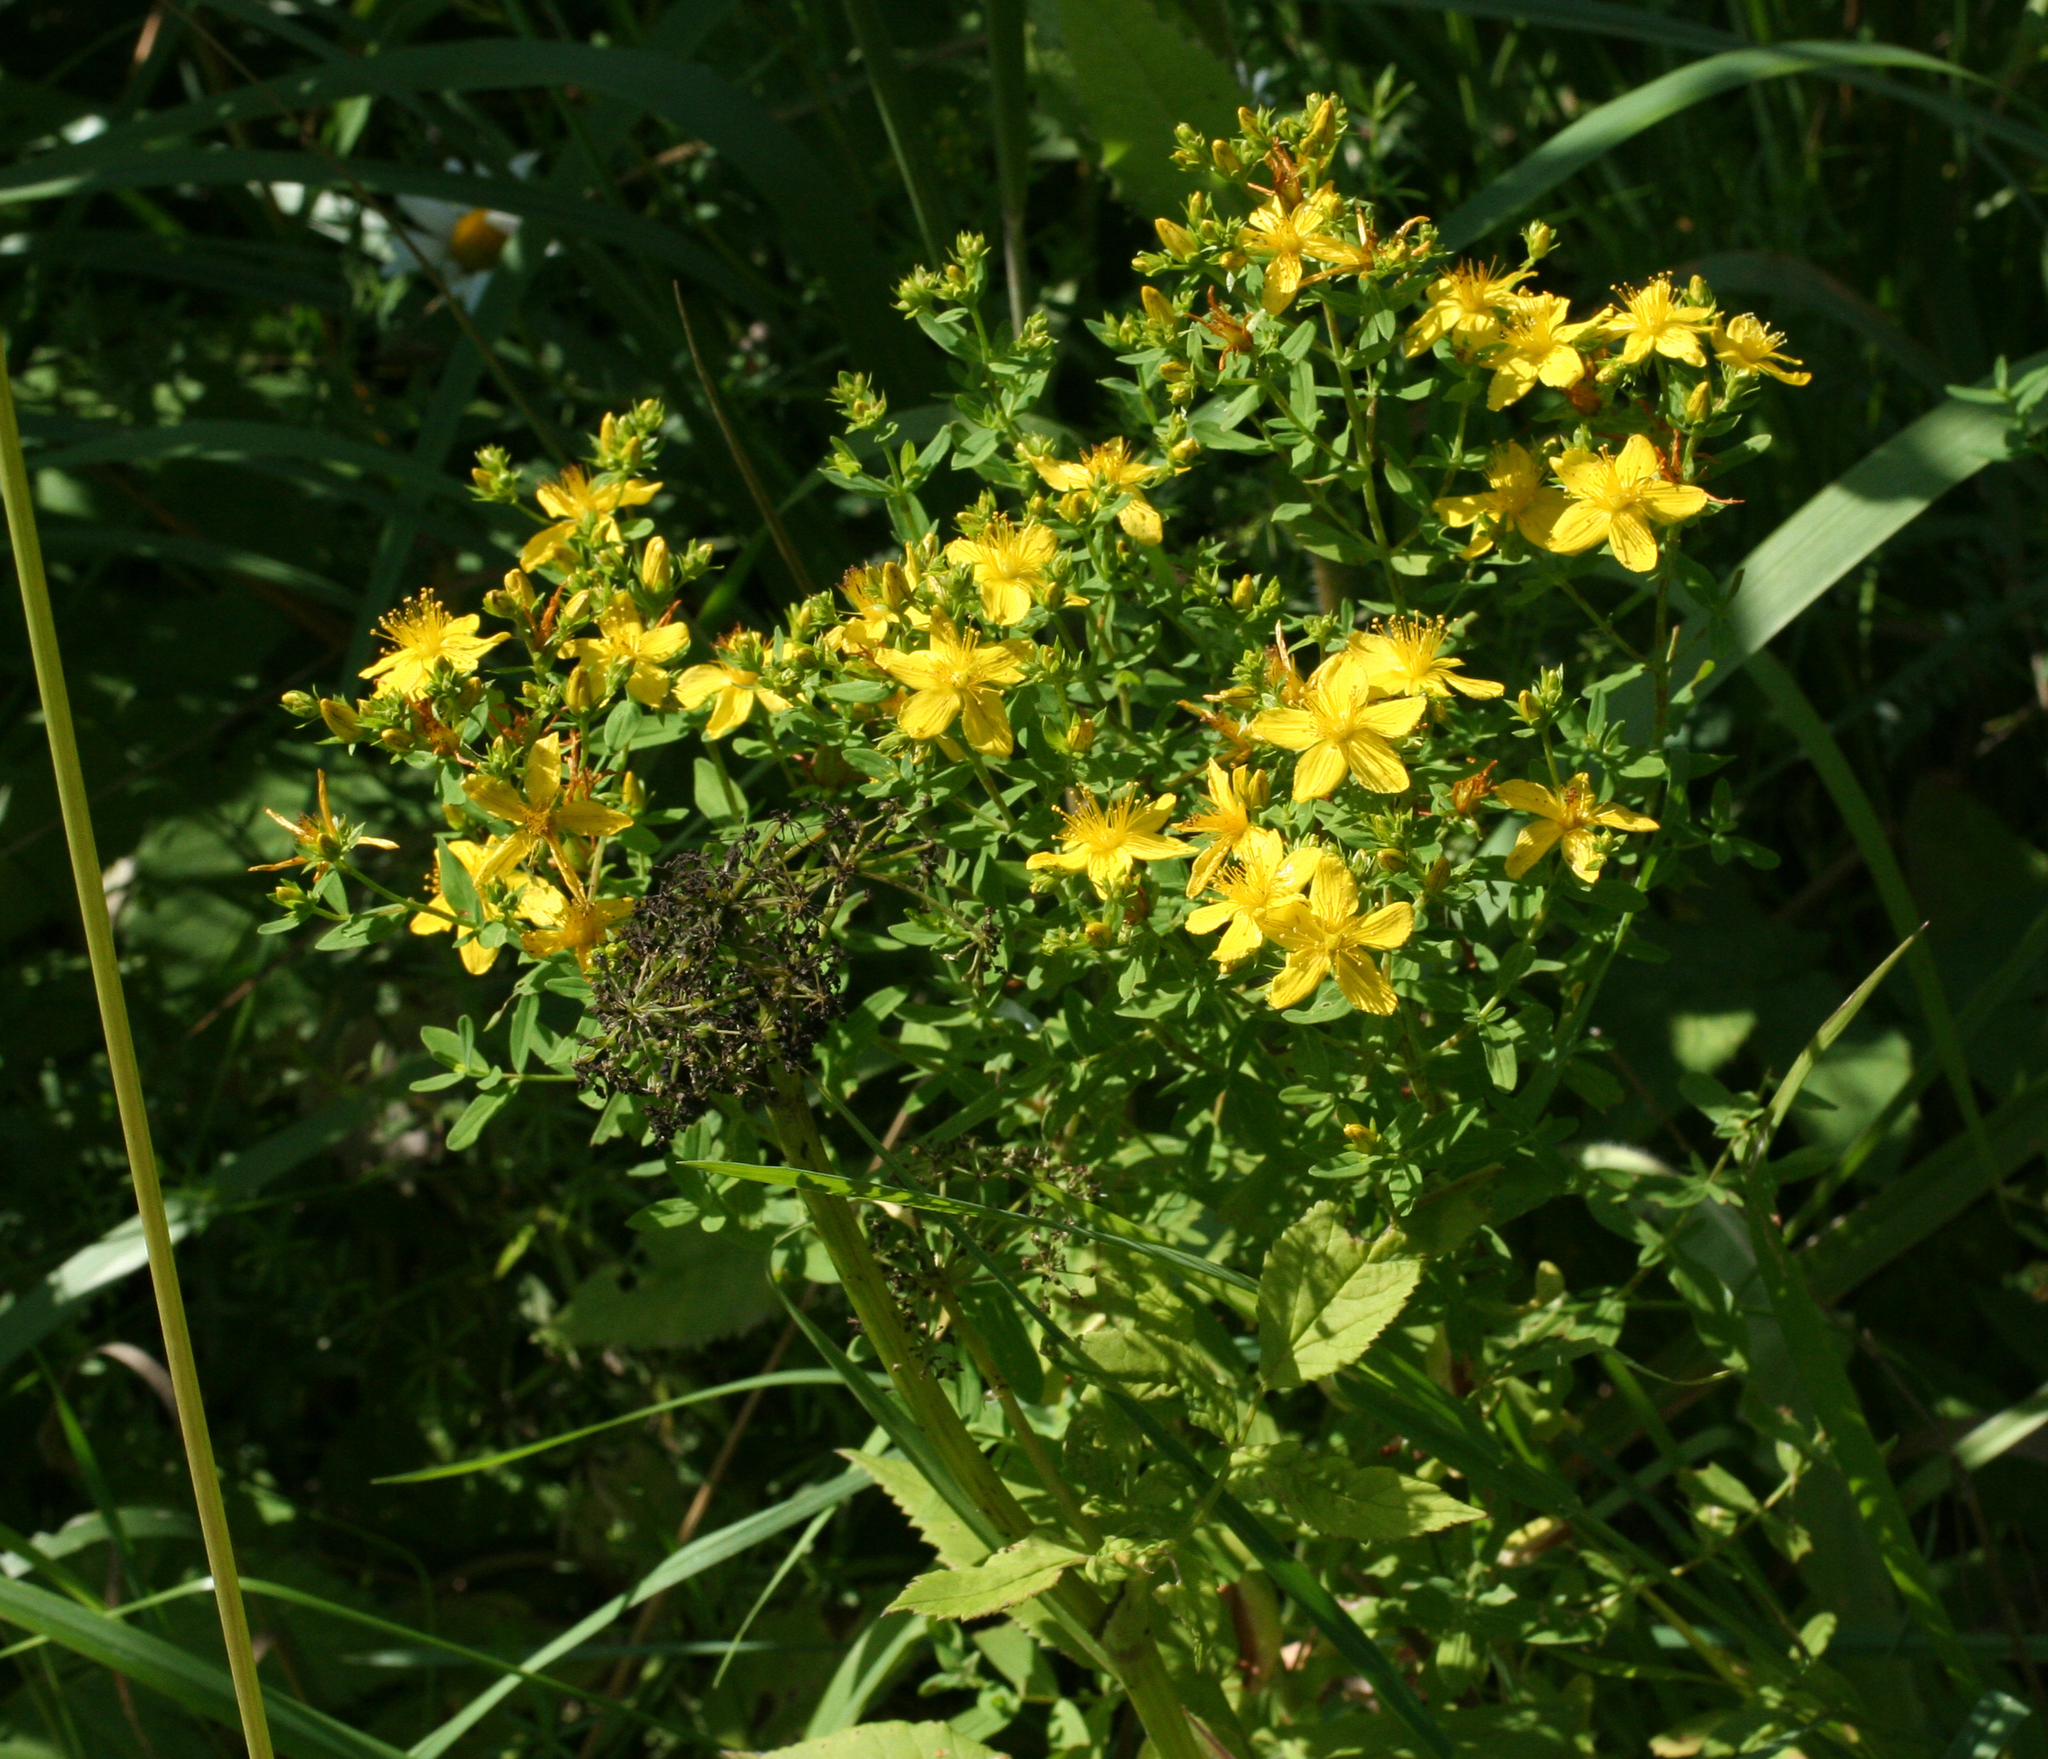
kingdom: Plantae
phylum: Tracheophyta
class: Magnoliopsida
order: Malpighiales
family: Hypericaceae
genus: Hypericum
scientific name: Hypericum perforatum
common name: Common st. johnswort
